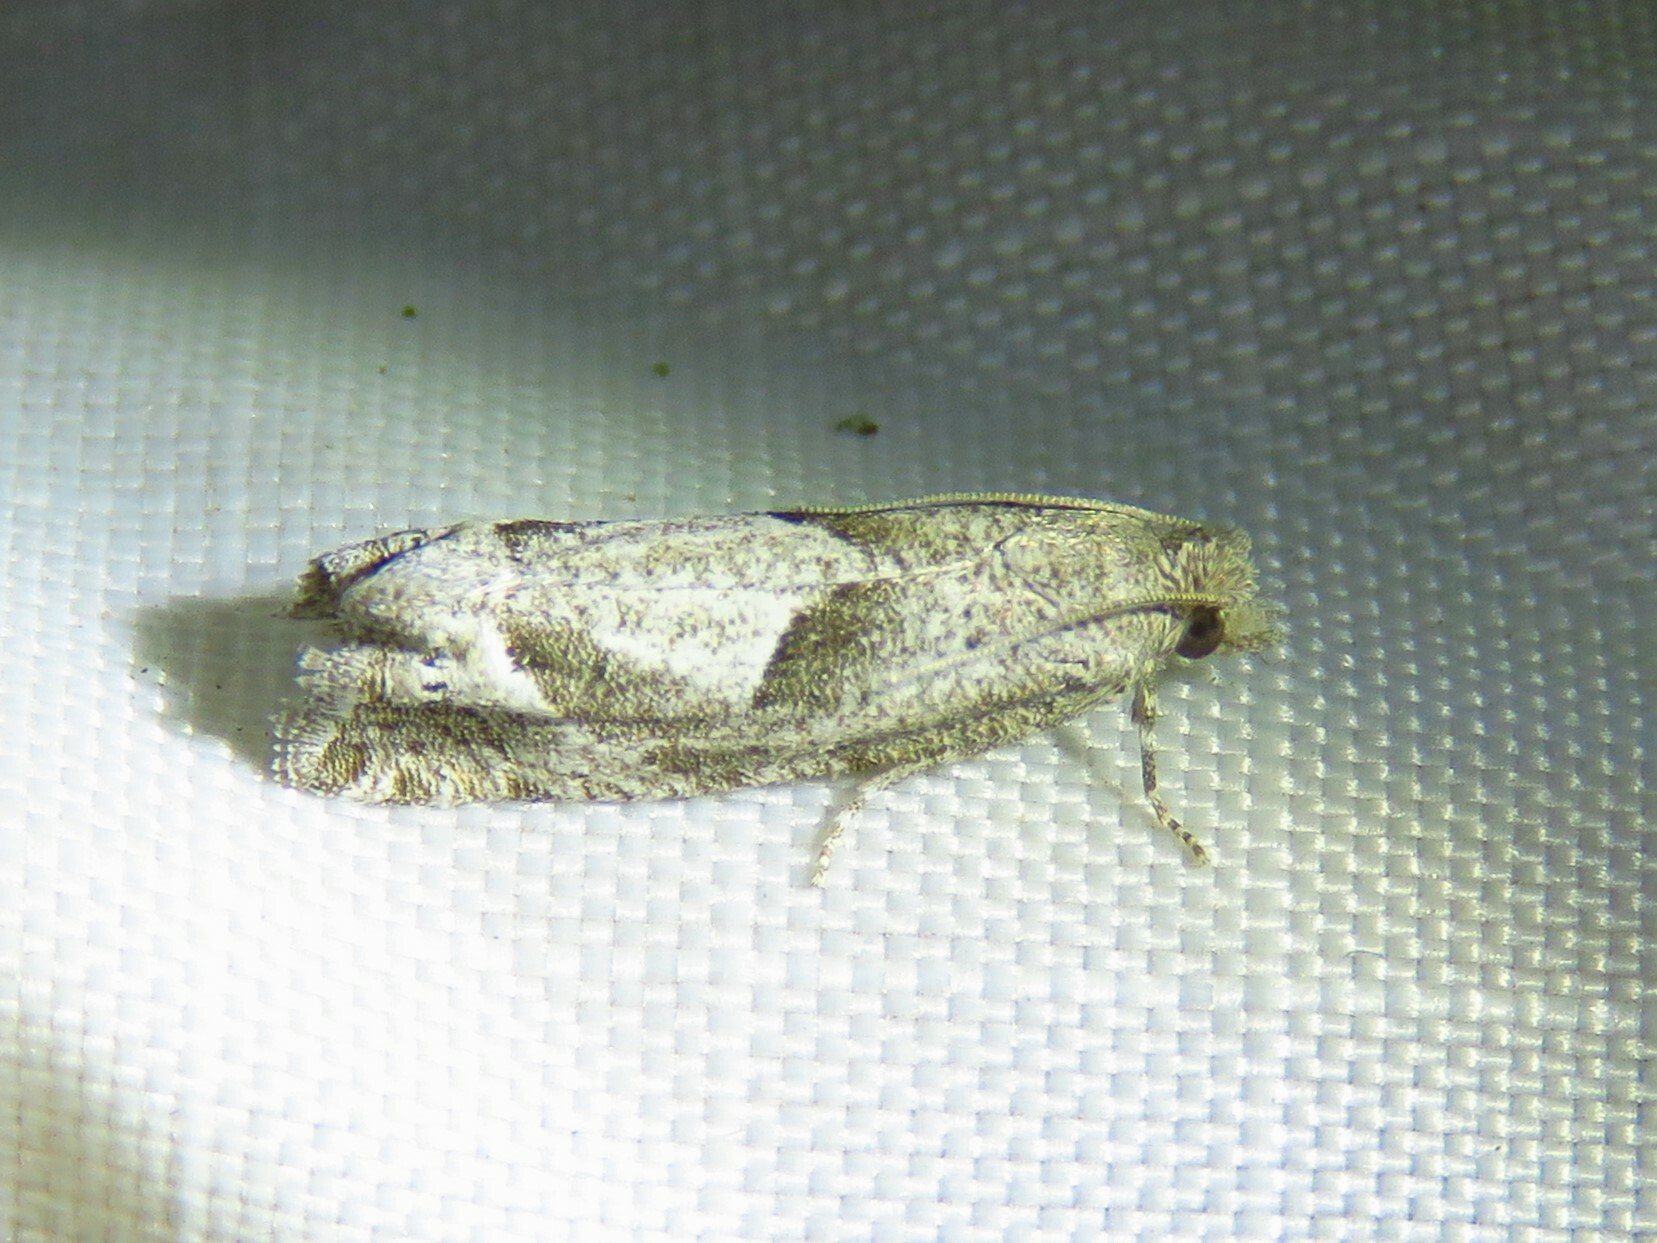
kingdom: Animalia
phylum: Arthropoda
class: Insecta
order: Lepidoptera
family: Tortricidae
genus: Pelochrista
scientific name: Pelochrista zomonana
